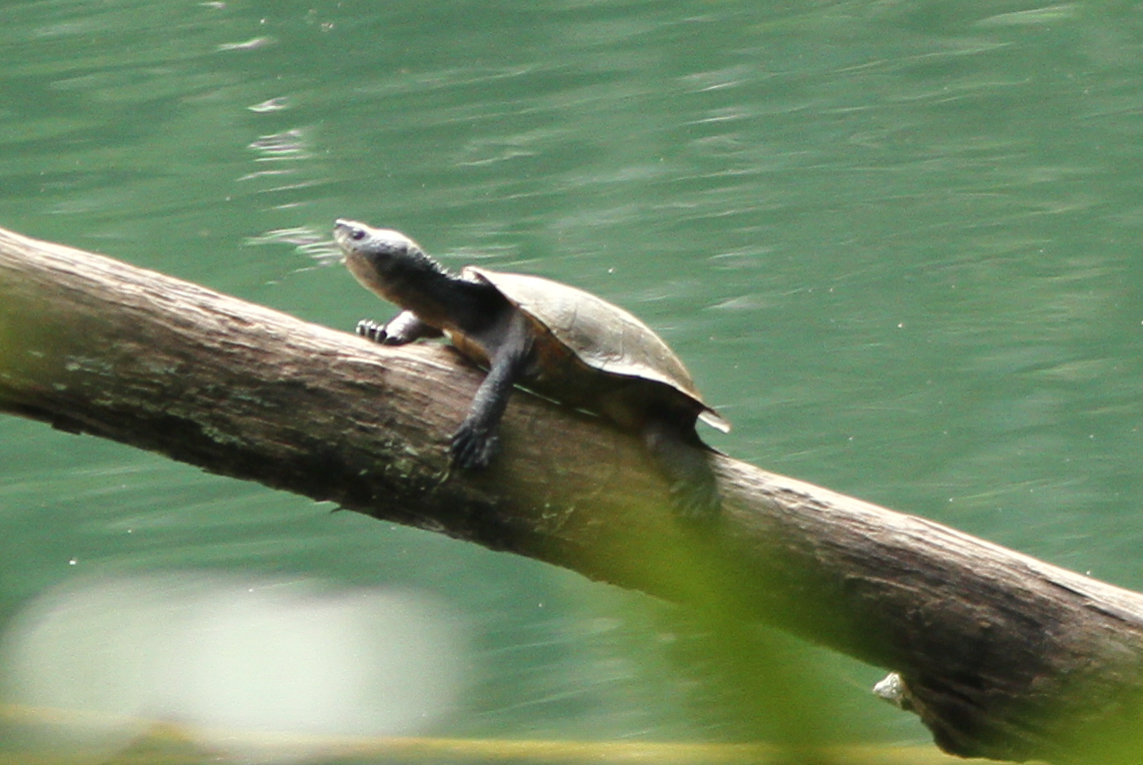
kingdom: Animalia
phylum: Chordata
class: Testudines
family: Chelidae
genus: Myuchelys
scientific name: Myuchelys latisternum
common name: Serrated snapping turtle
